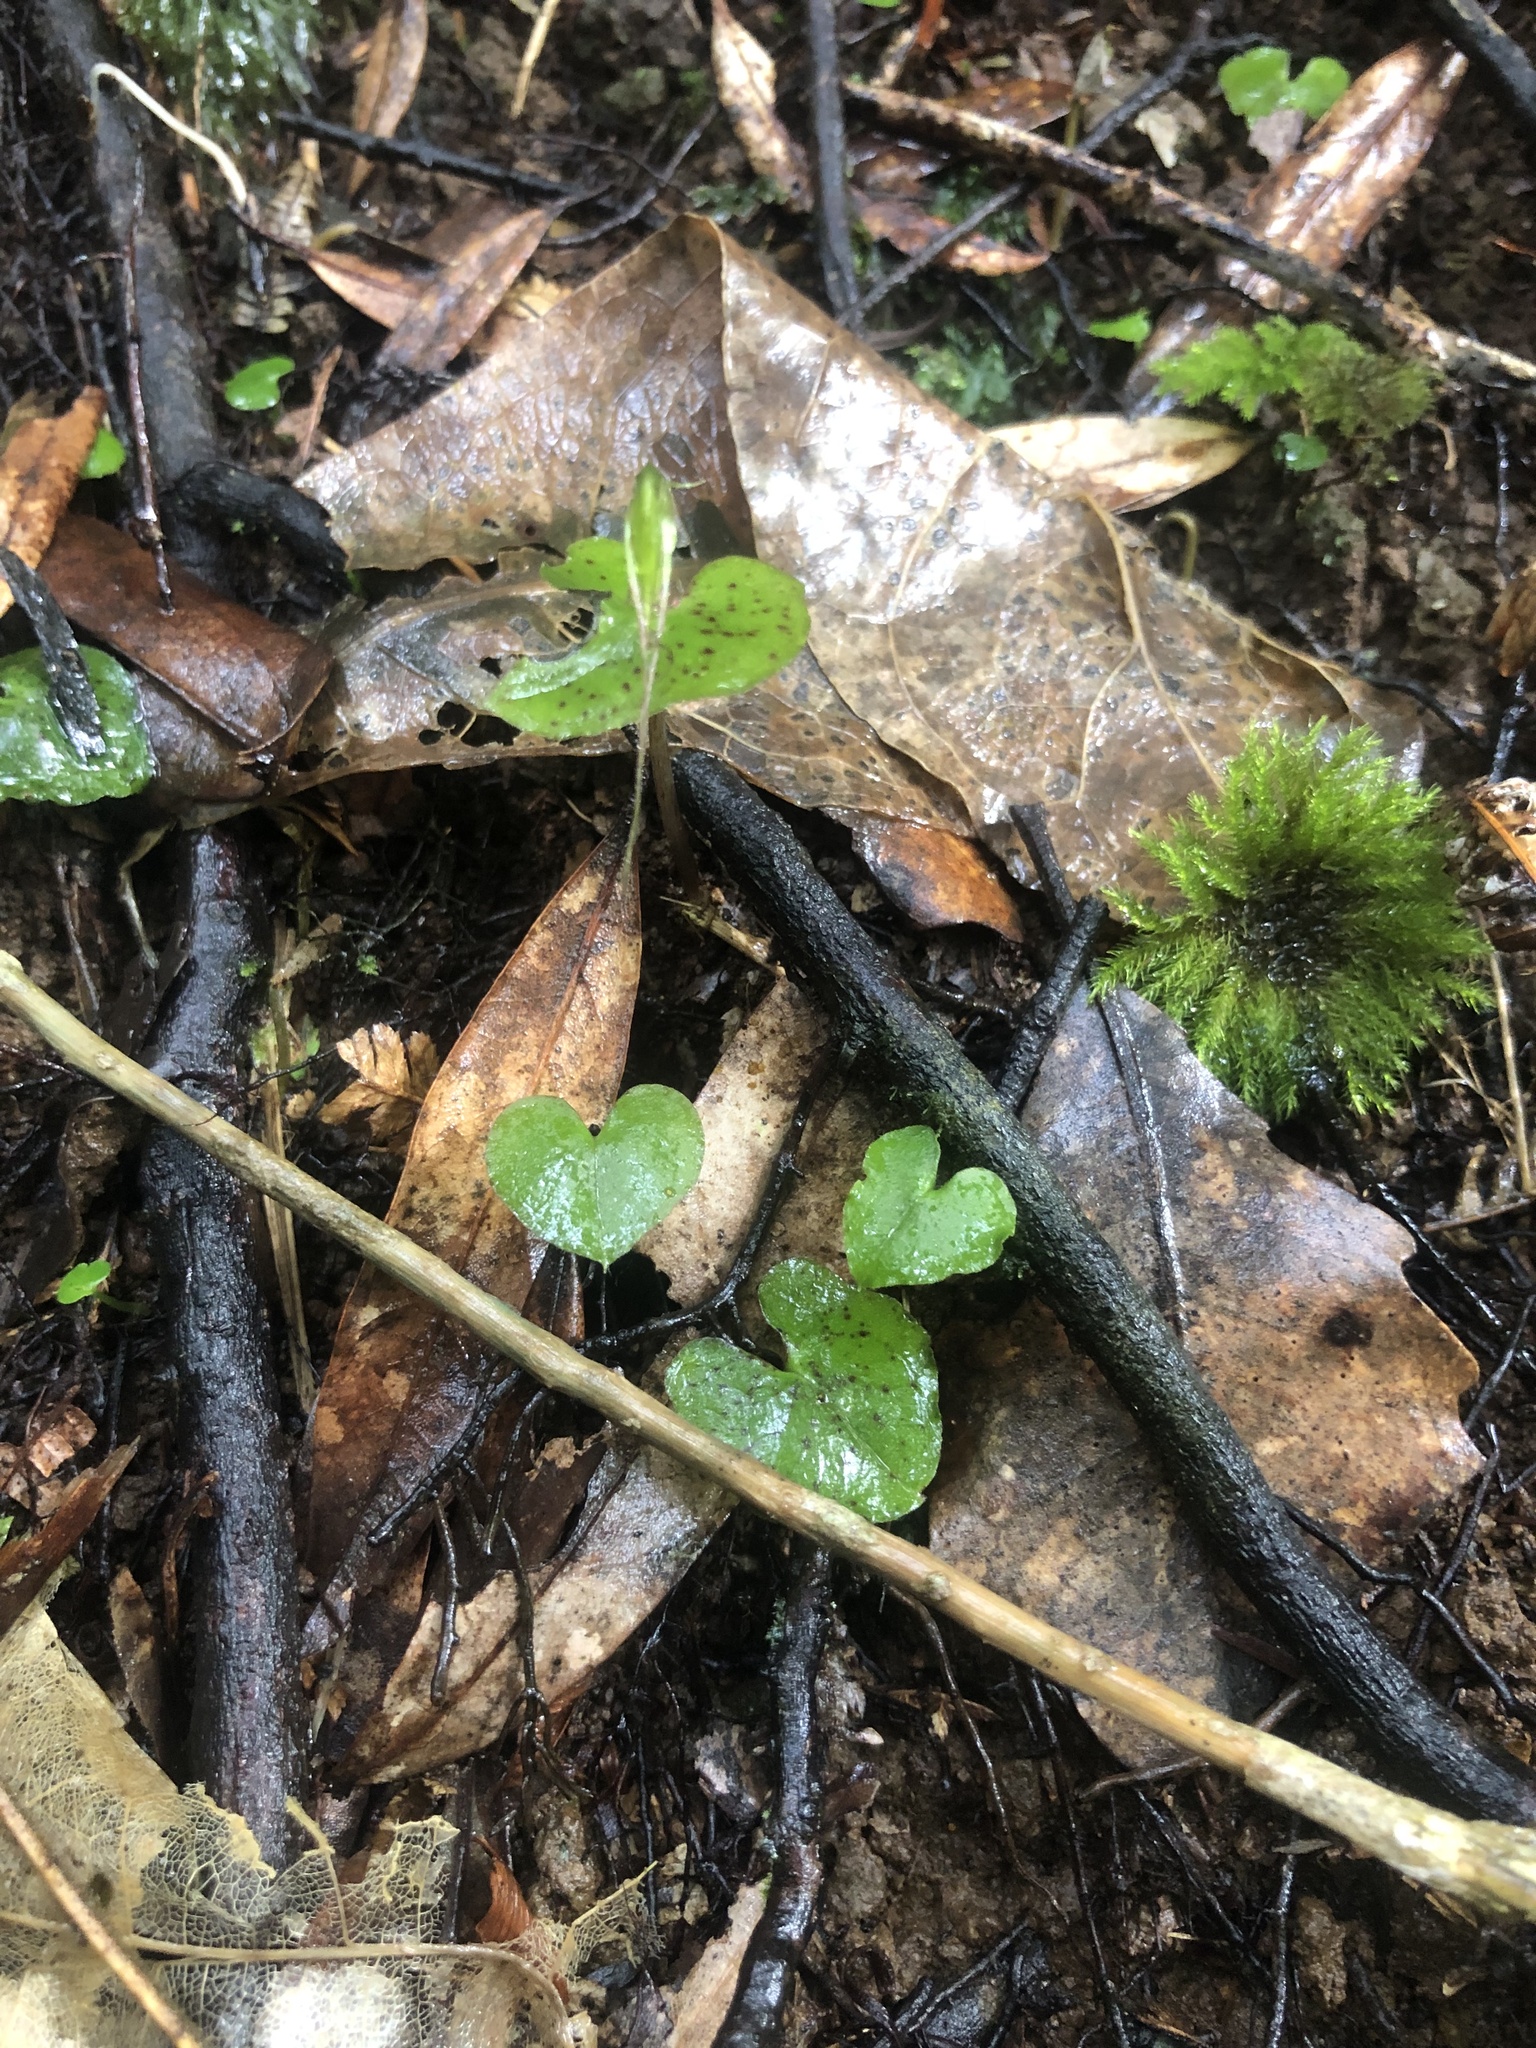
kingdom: Plantae
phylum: Tracheophyta
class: Liliopsida
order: Asparagales
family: Orchidaceae
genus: Corybas
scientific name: Corybas acuminatus
